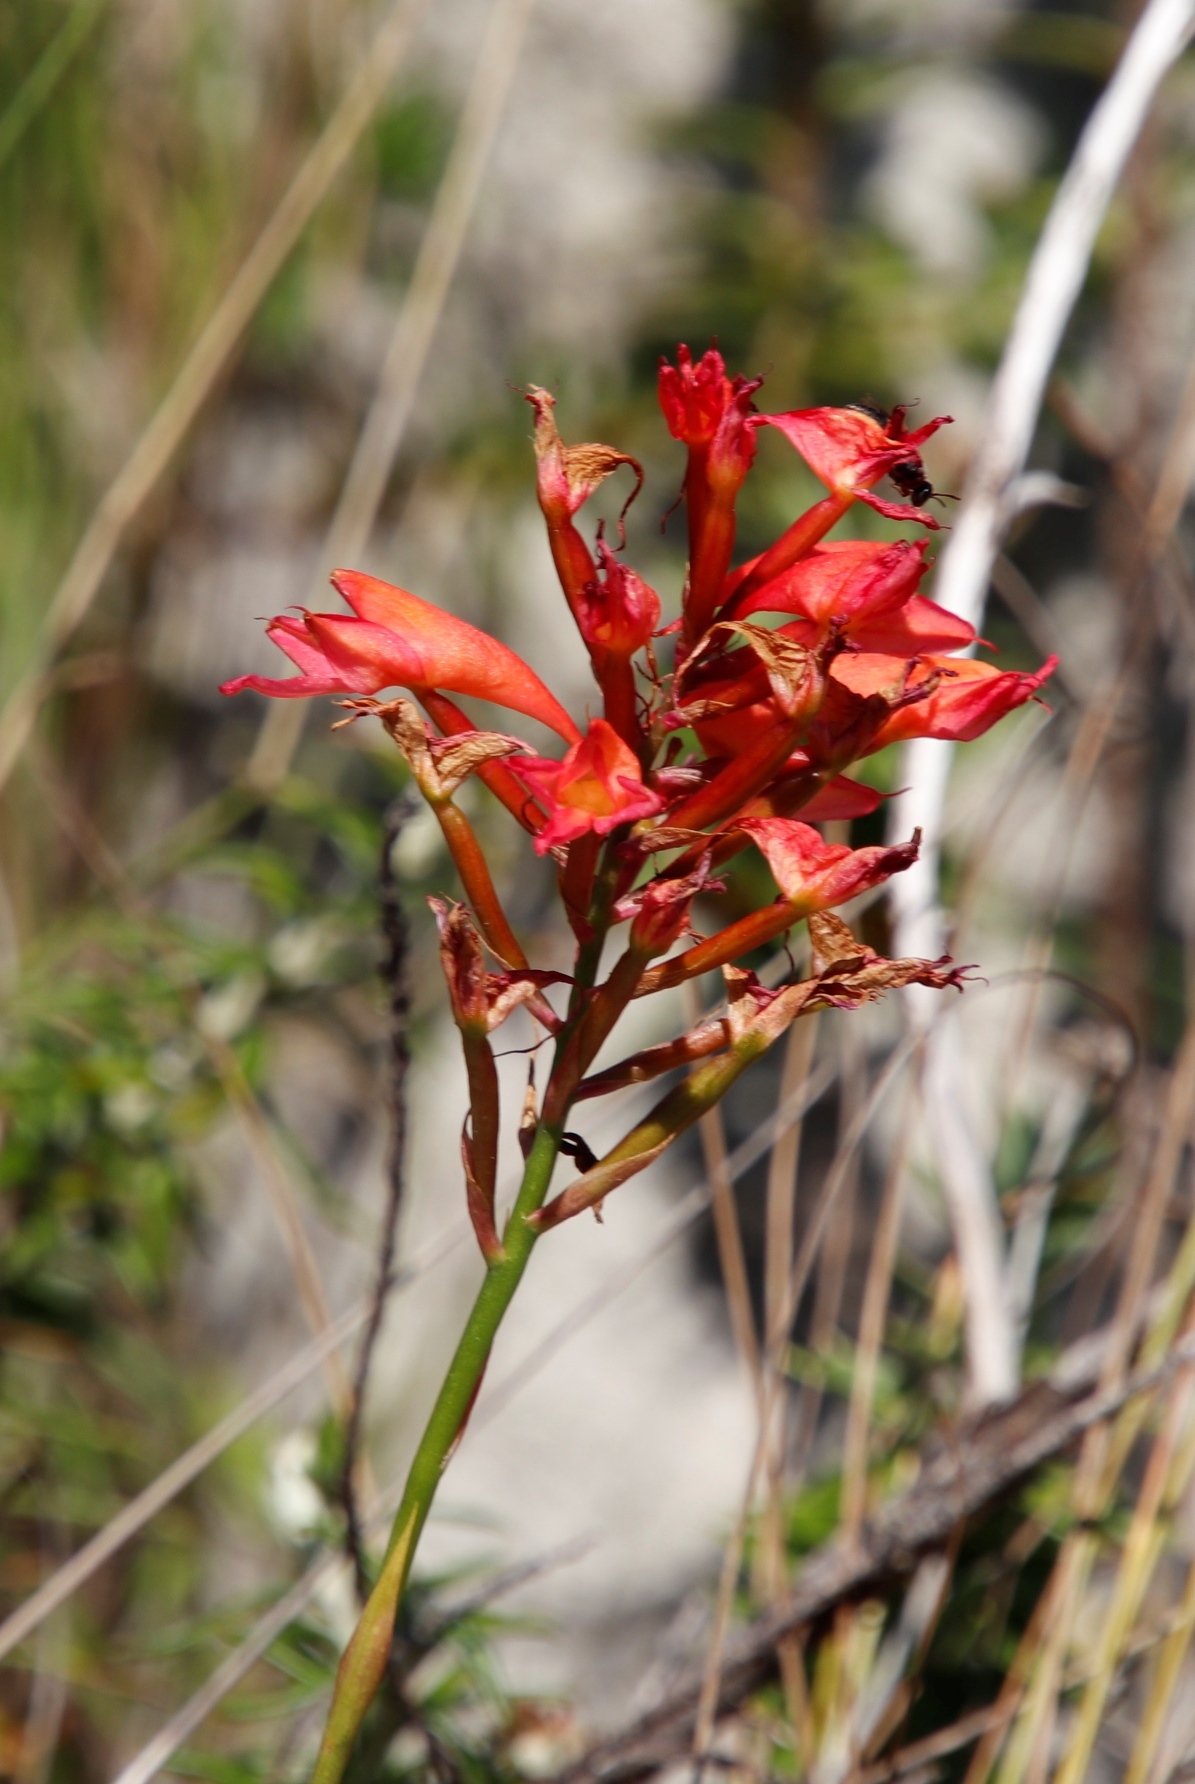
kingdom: Plantae
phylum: Tracheophyta
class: Liliopsida
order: Asparagales
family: Orchidaceae
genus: Disa
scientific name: Disa ferruginea
